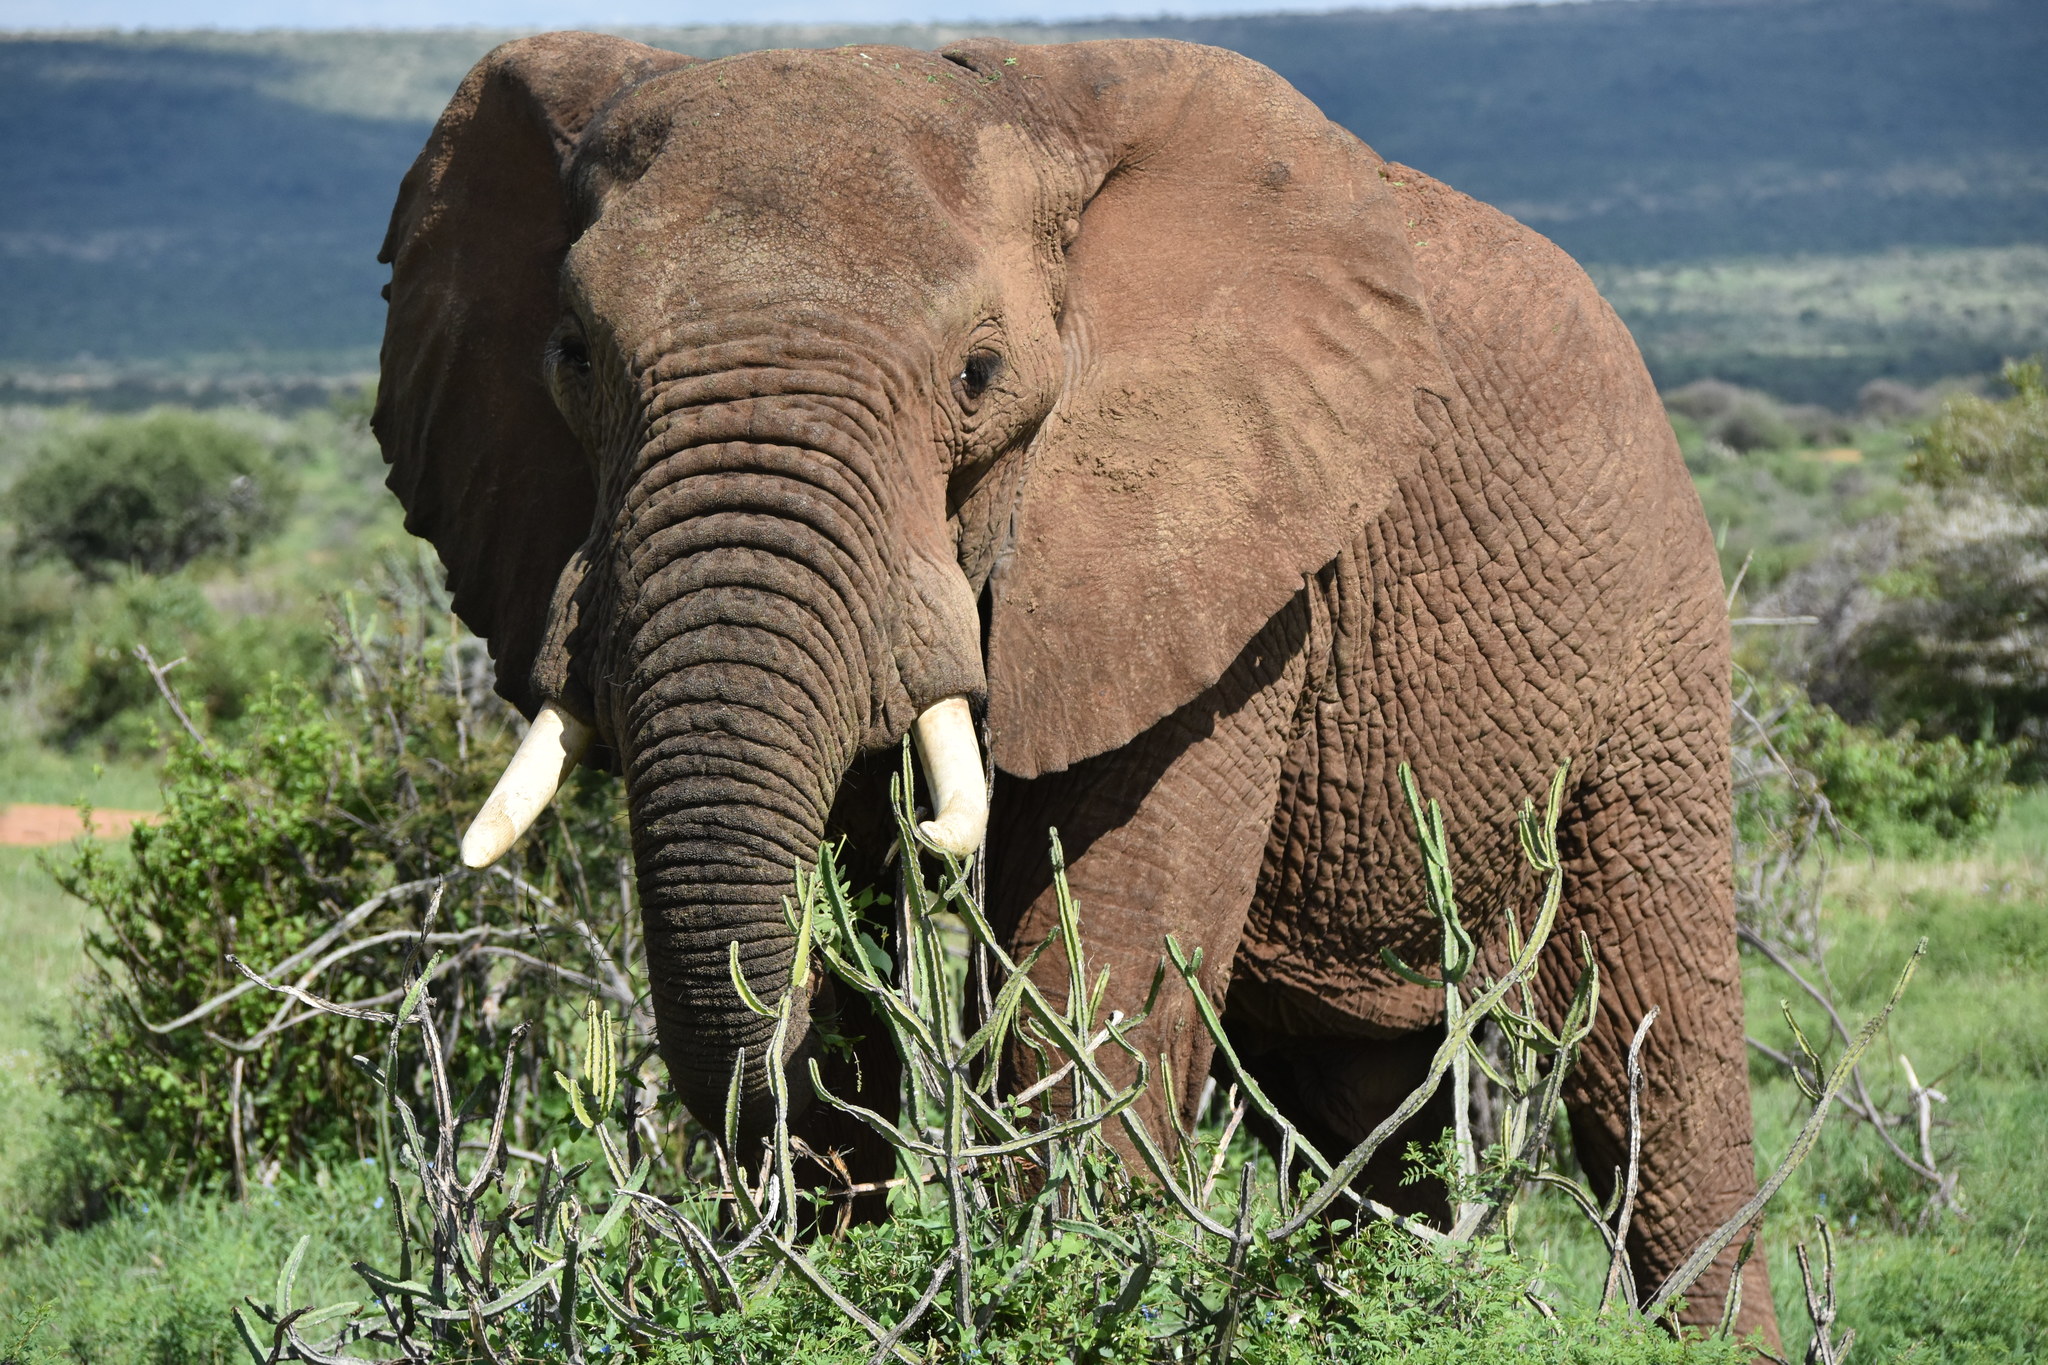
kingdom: Animalia
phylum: Chordata
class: Mammalia
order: Proboscidea
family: Elephantidae
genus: Loxodonta
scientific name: Loxodonta africana
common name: African elephant
